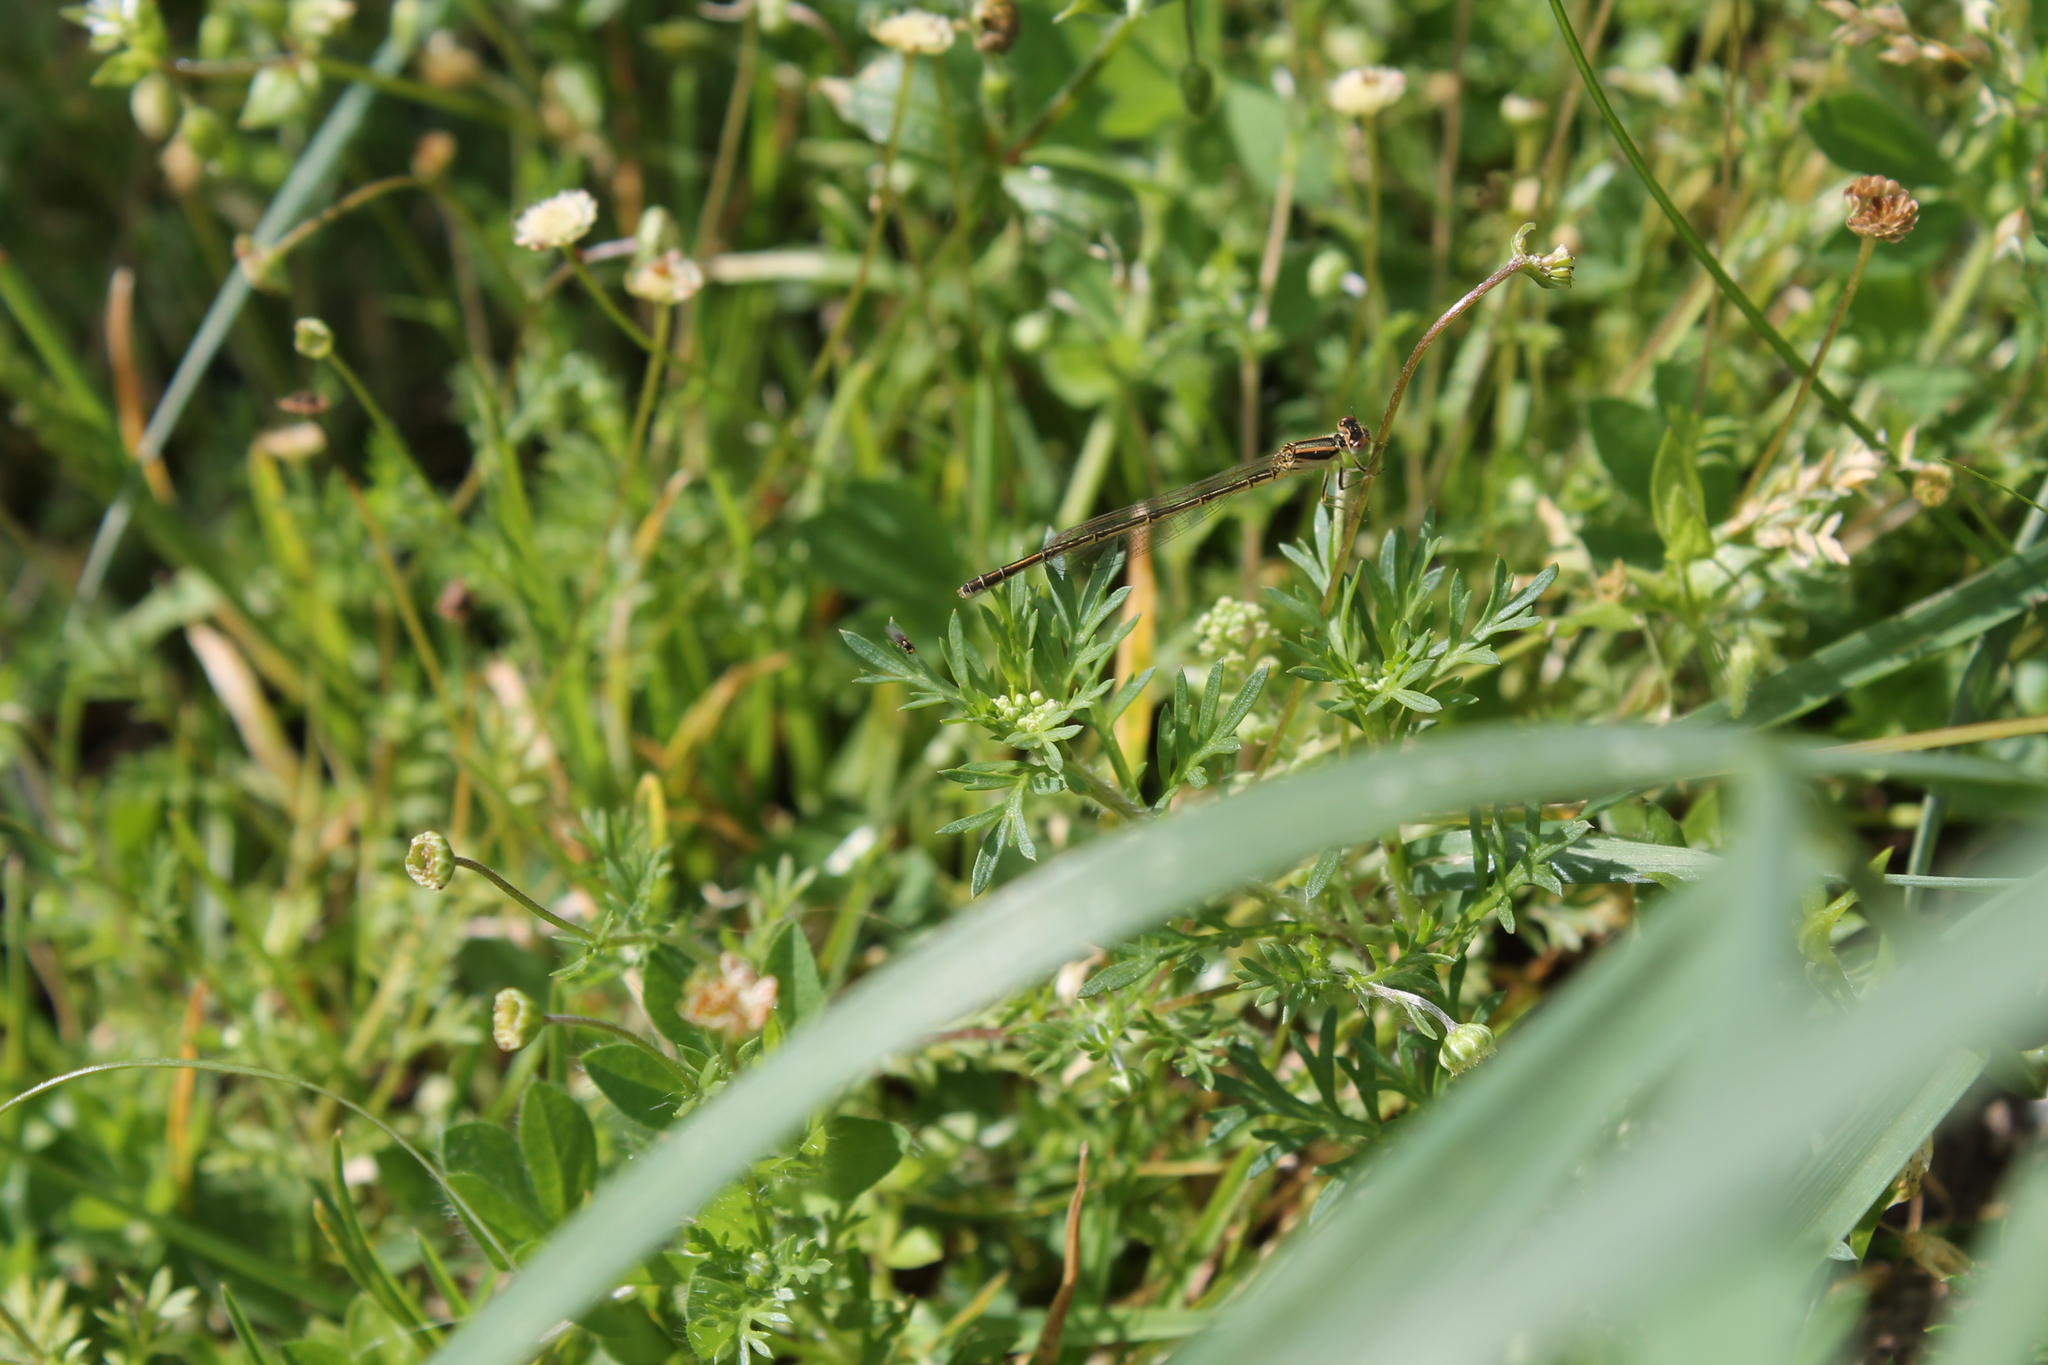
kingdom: Animalia
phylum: Arthropoda
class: Insecta
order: Odonata
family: Coenagrionidae
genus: Xanthocnemis
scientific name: Xanthocnemis zealandica
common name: Common redcoat damselfly
